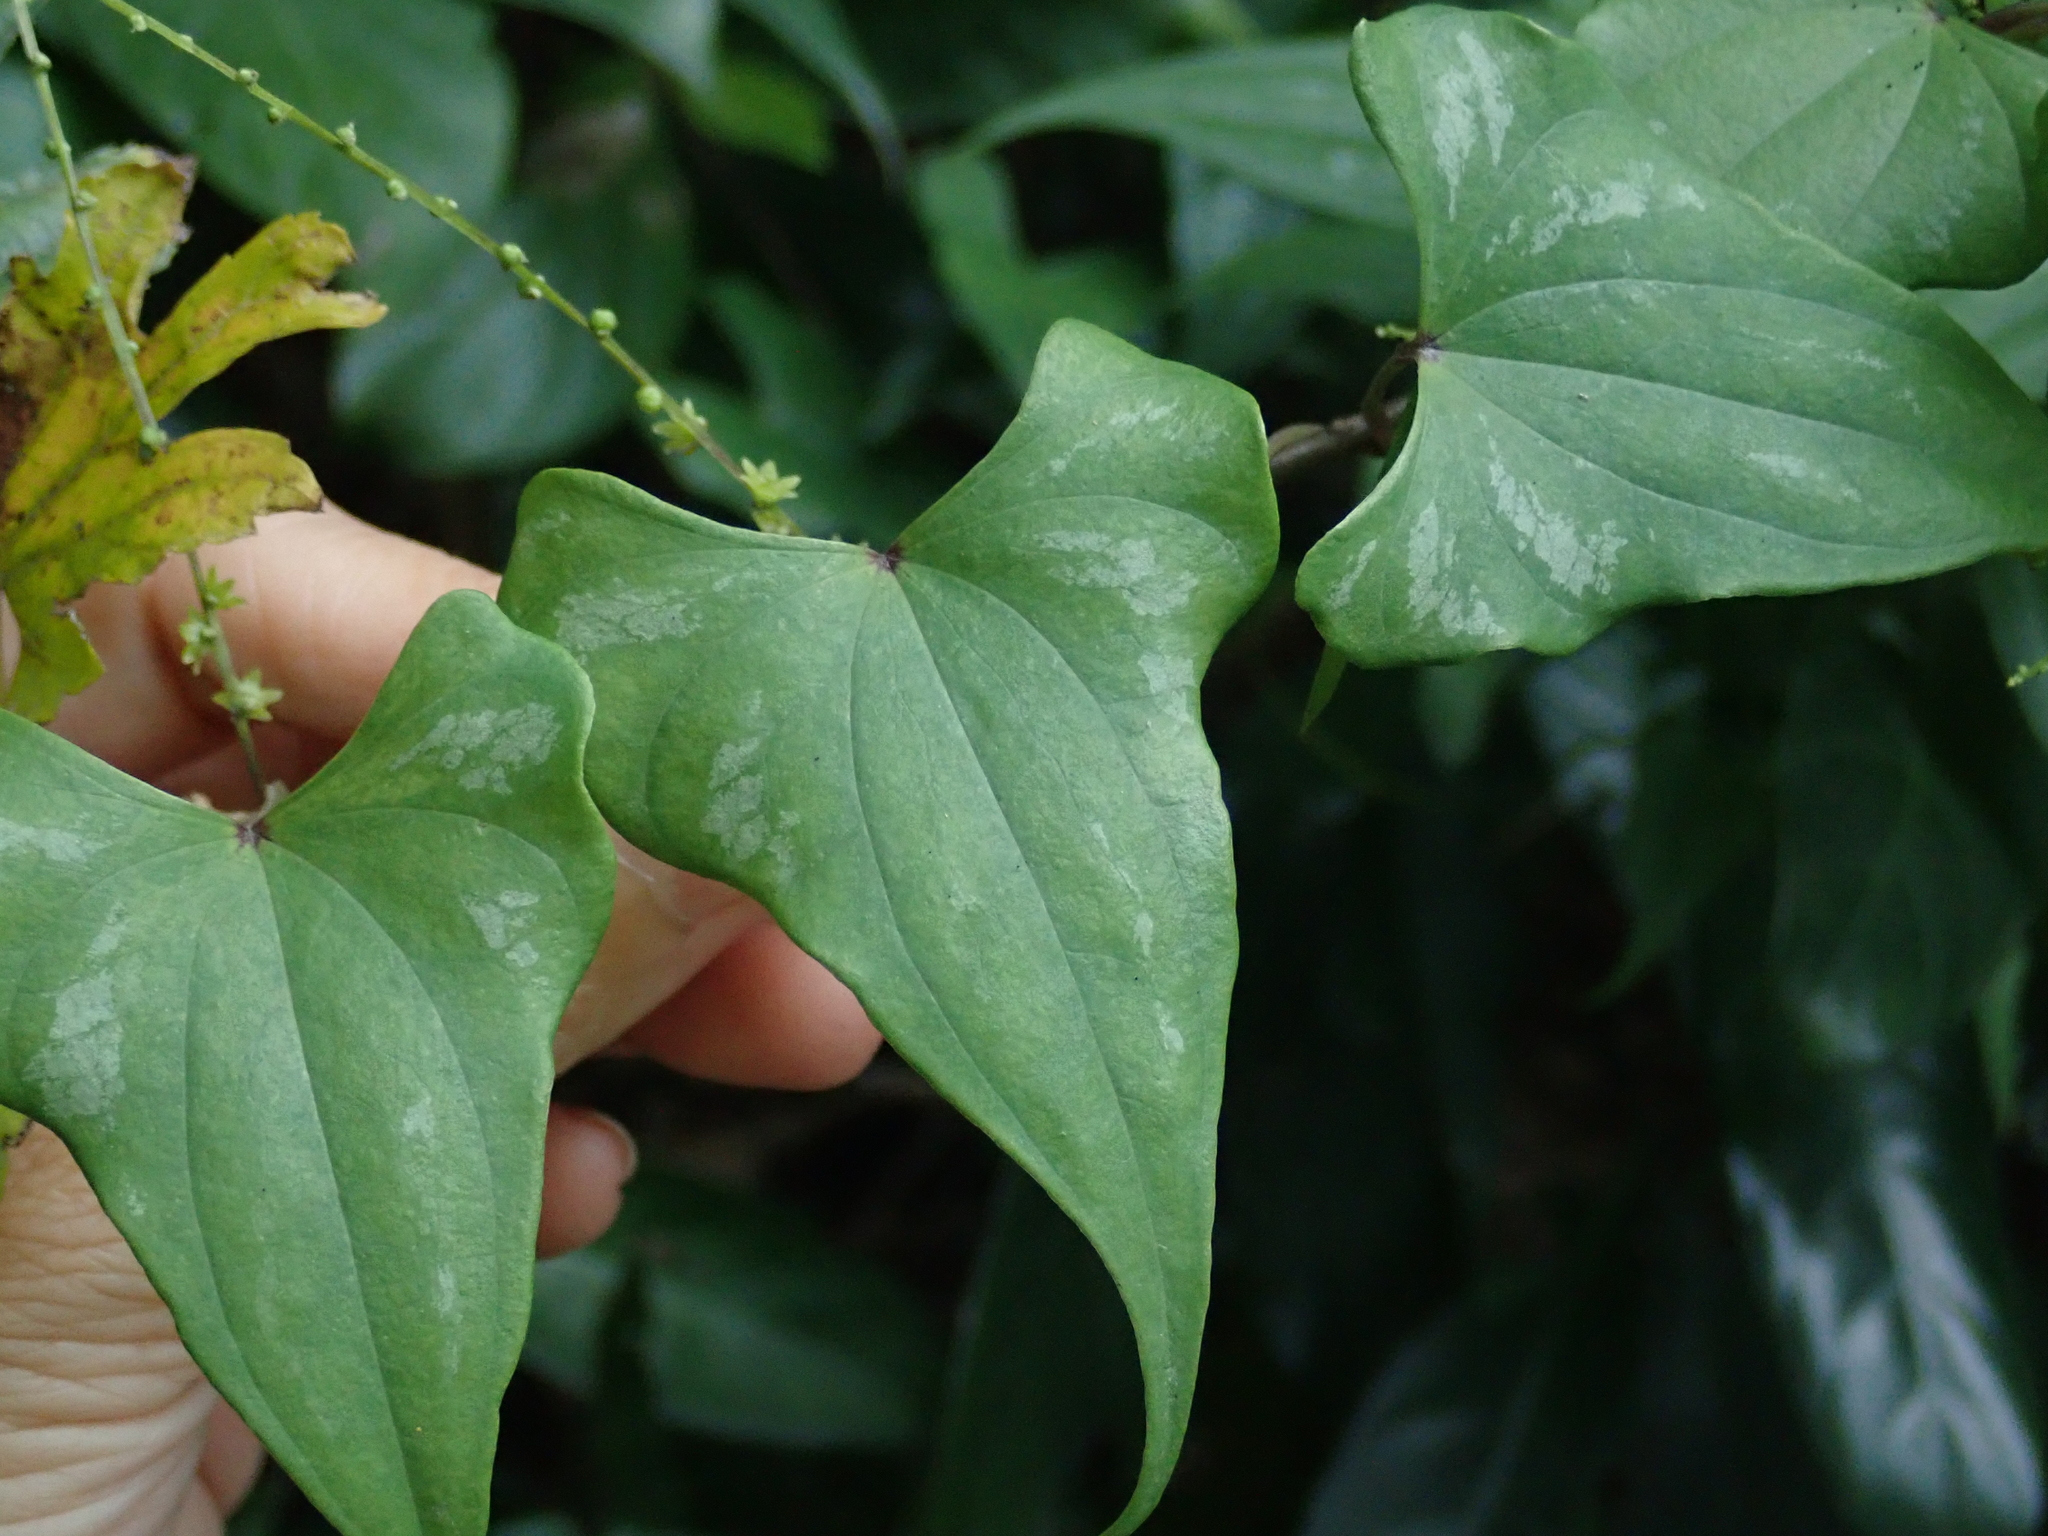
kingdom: Plantae
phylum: Tracheophyta
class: Liliopsida
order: Dioscoreales
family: Dioscoreaceae
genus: Dioscorea
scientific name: Dioscorea collettii
